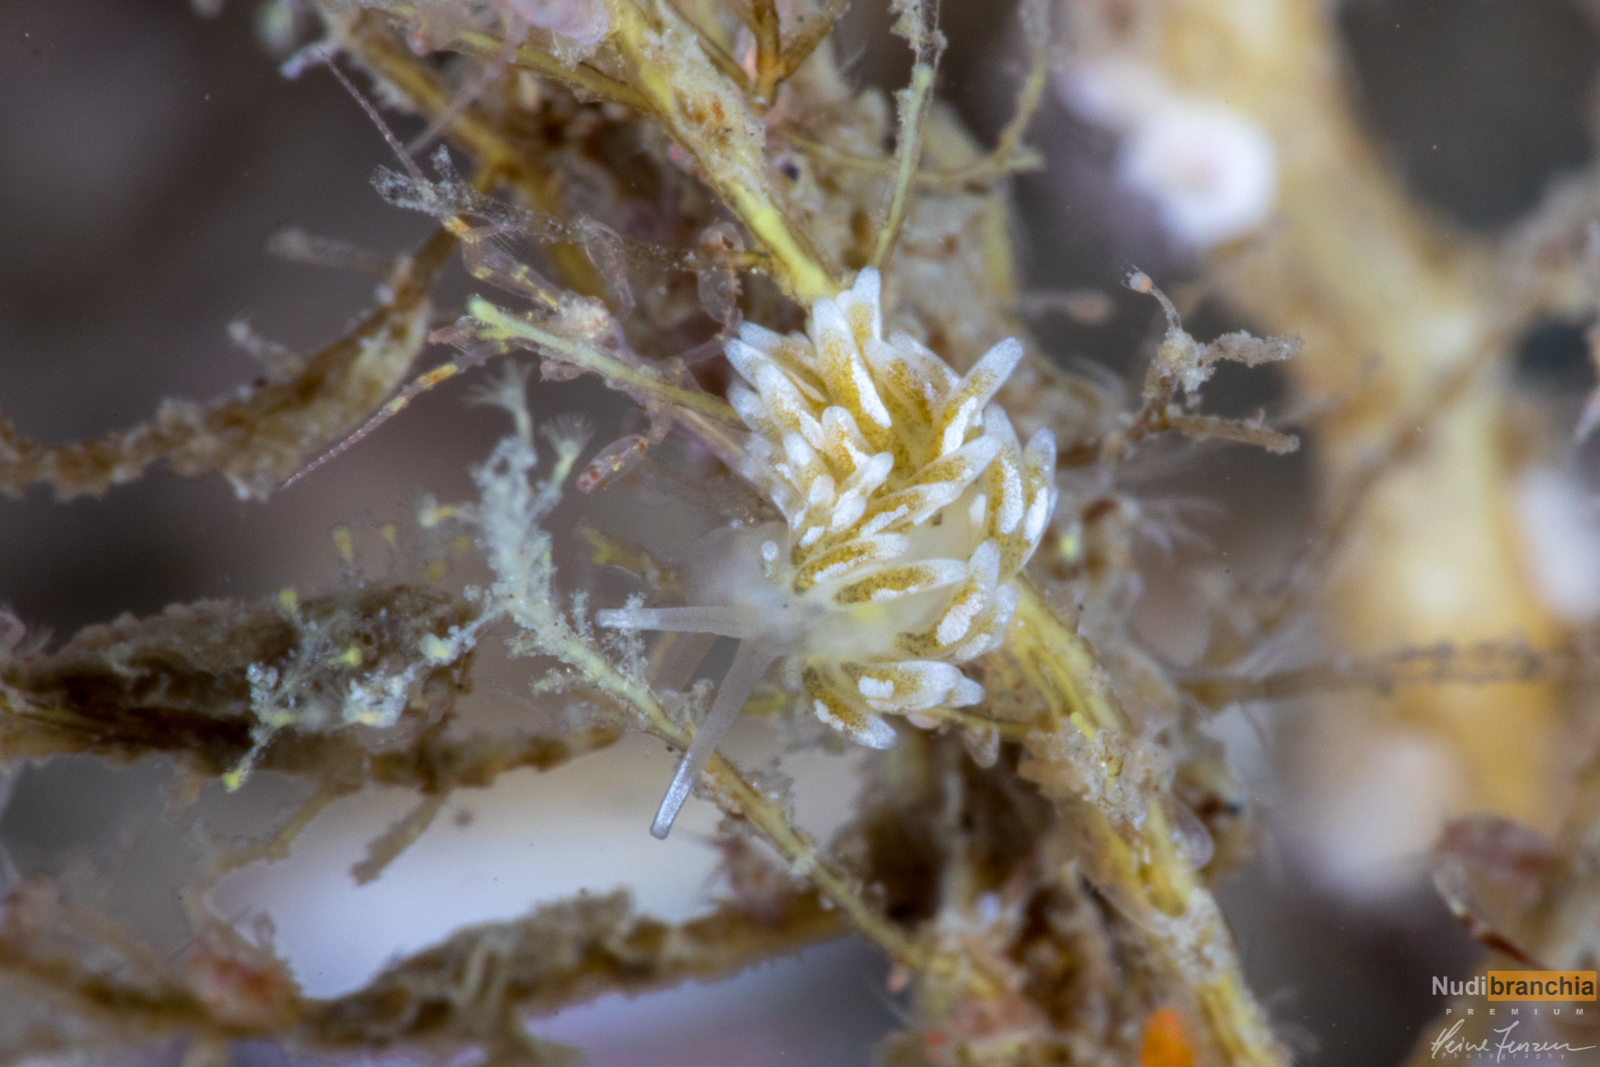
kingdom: Animalia
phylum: Mollusca
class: Gastropoda
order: Nudibranchia
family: Trinchesiidae
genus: Zelentia
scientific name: Zelentia pustulata
